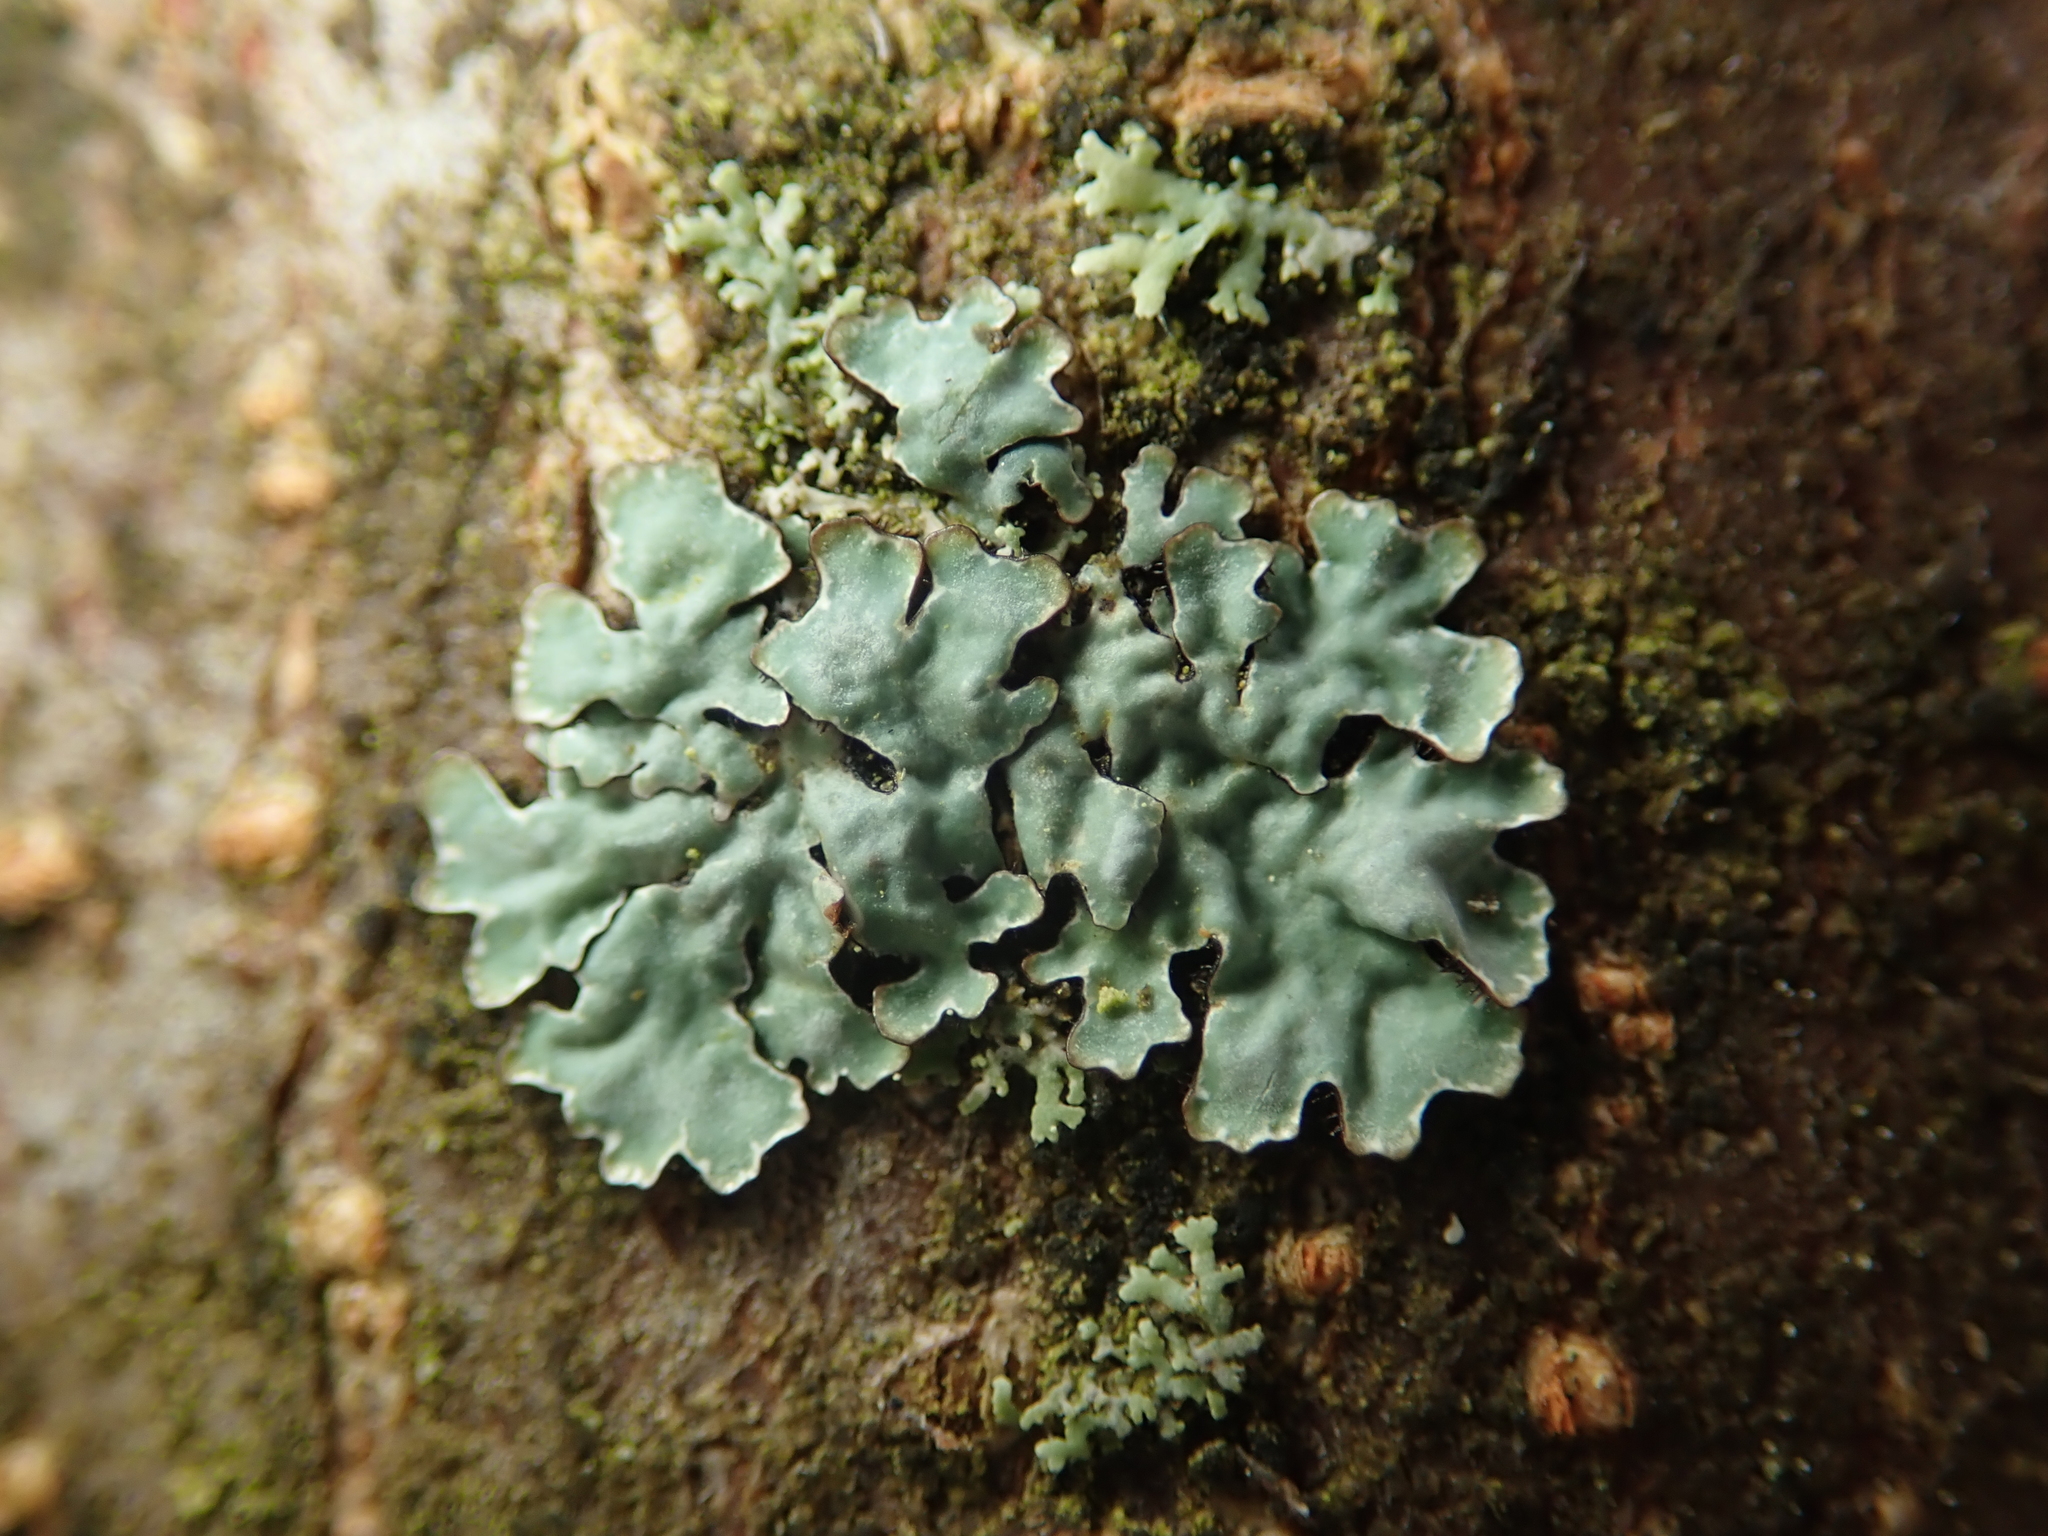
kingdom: Fungi
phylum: Ascomycota
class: Lecanoromycetes
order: Lecanorales
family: Parmeliaceae
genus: Parmelia
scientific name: Parmelia sulcata
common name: Netted shield lichen
